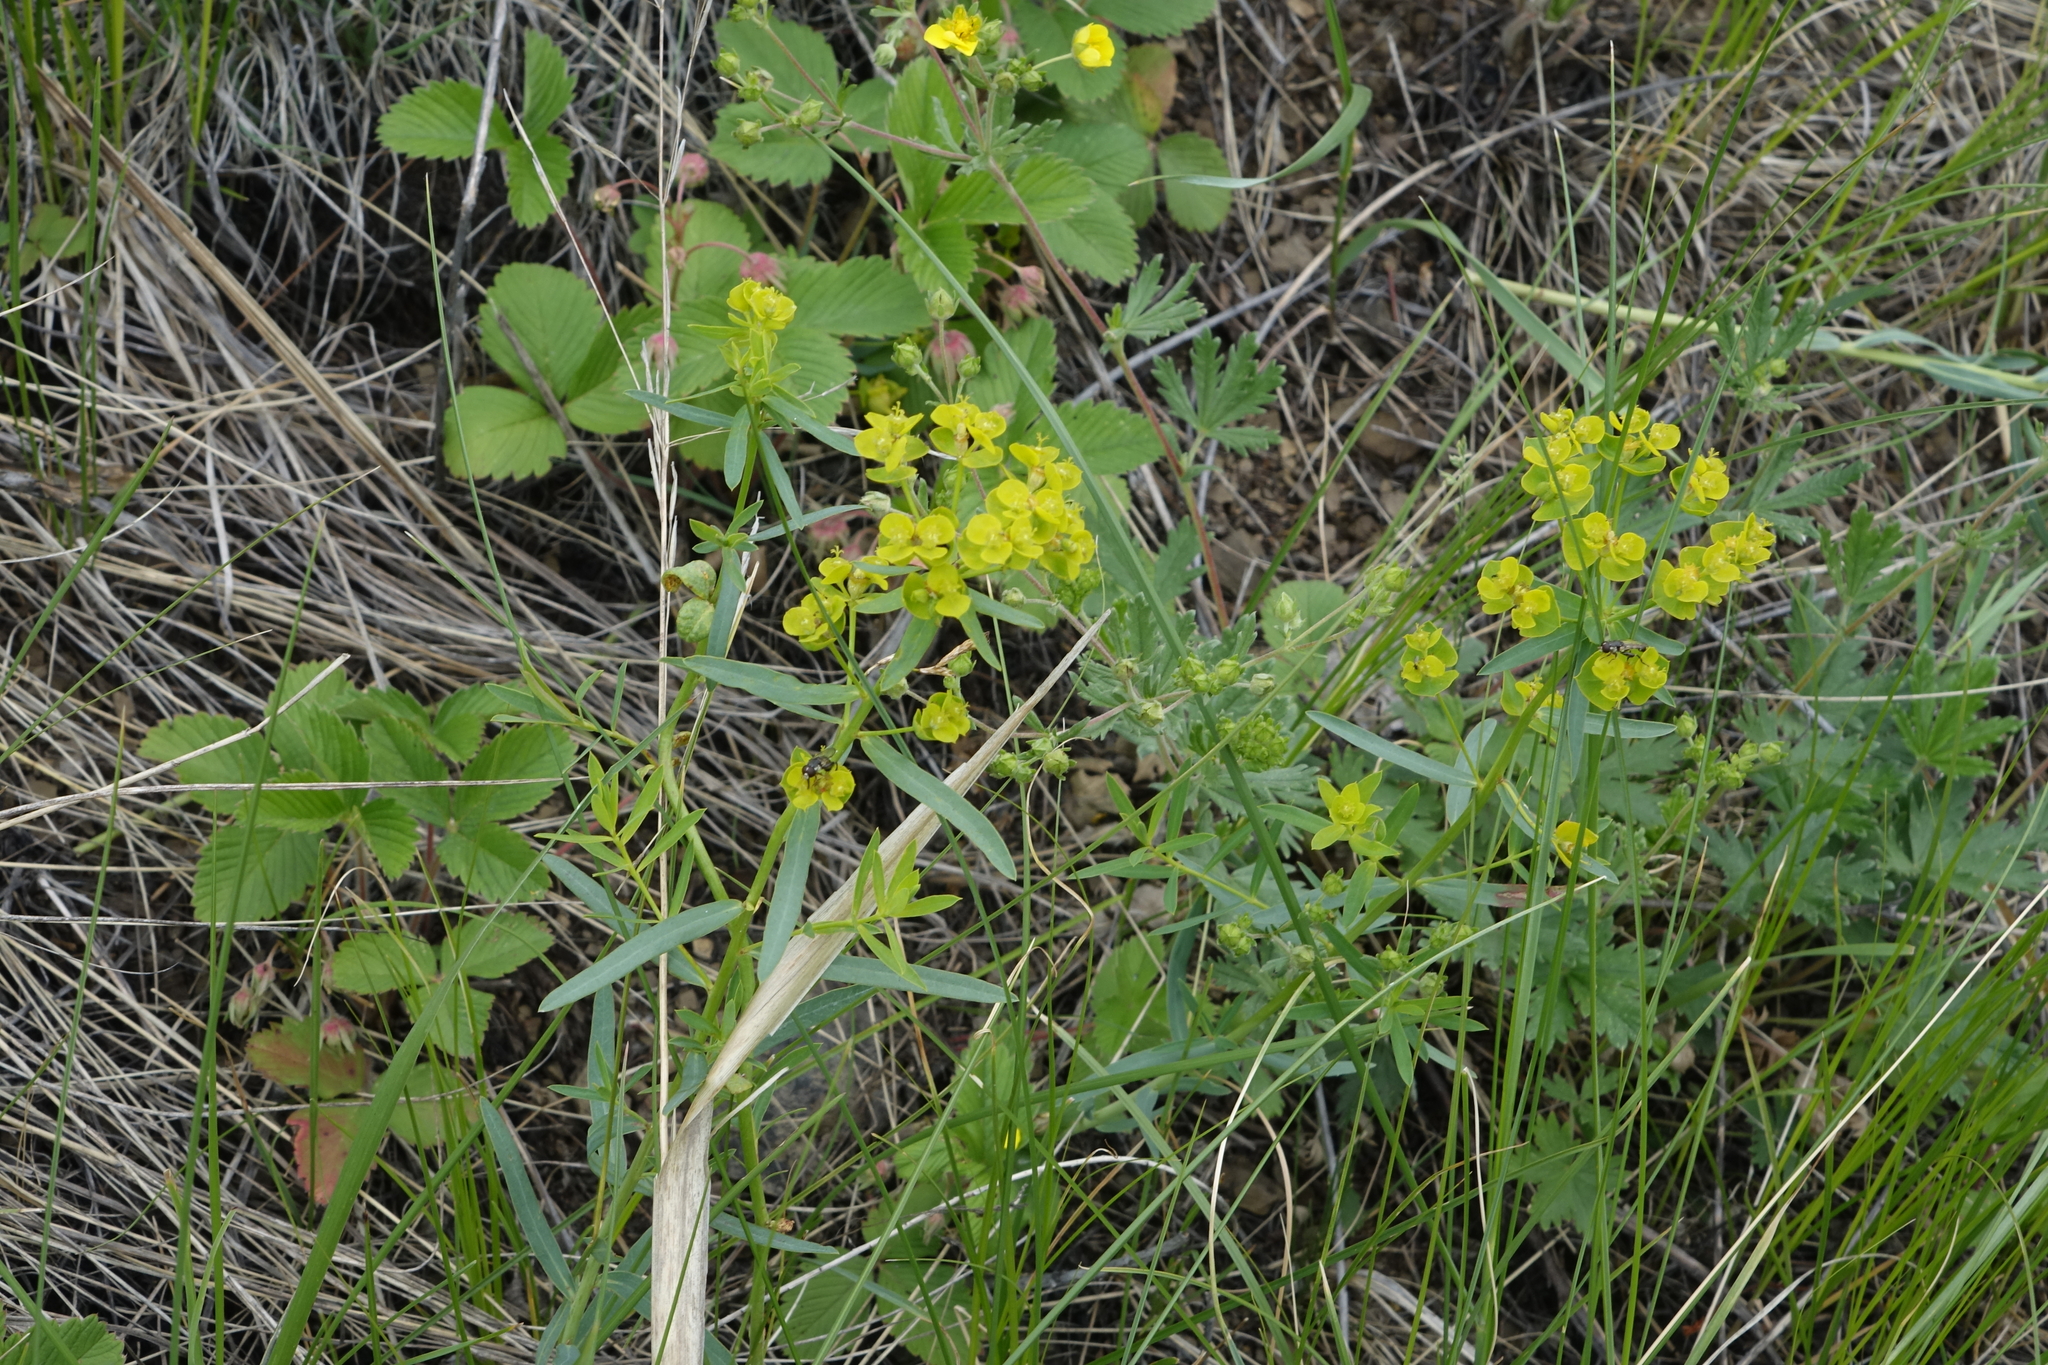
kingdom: Plantae
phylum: Tracheophyta
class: Magnoliopsida
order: Malpighiales
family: Euphorbiaceae
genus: Euphorbia
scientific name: Euphorbia virgata
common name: Leafy spurge
